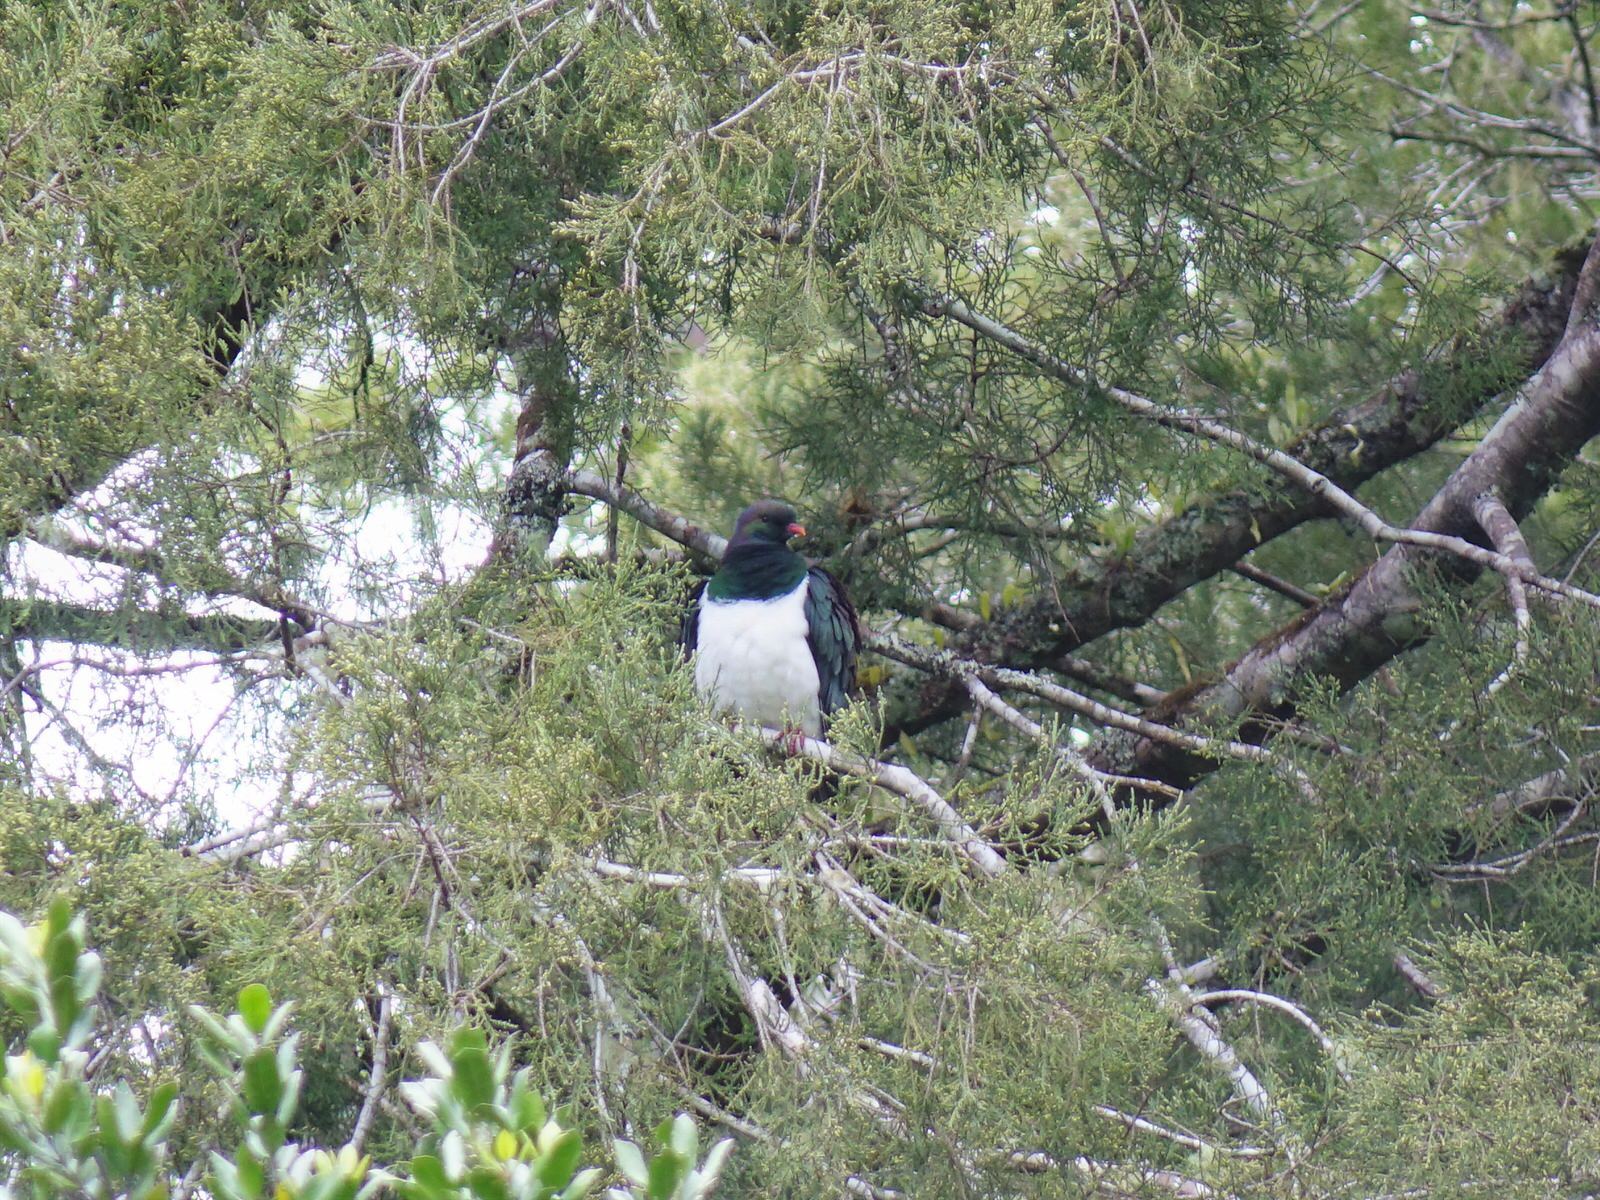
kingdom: Animalia
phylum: Chordata
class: Aves
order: Columbiformes
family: Columbidae
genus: Hemiphaga
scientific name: Hemiphaga novaeseelandiae
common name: New zealand pigeon
